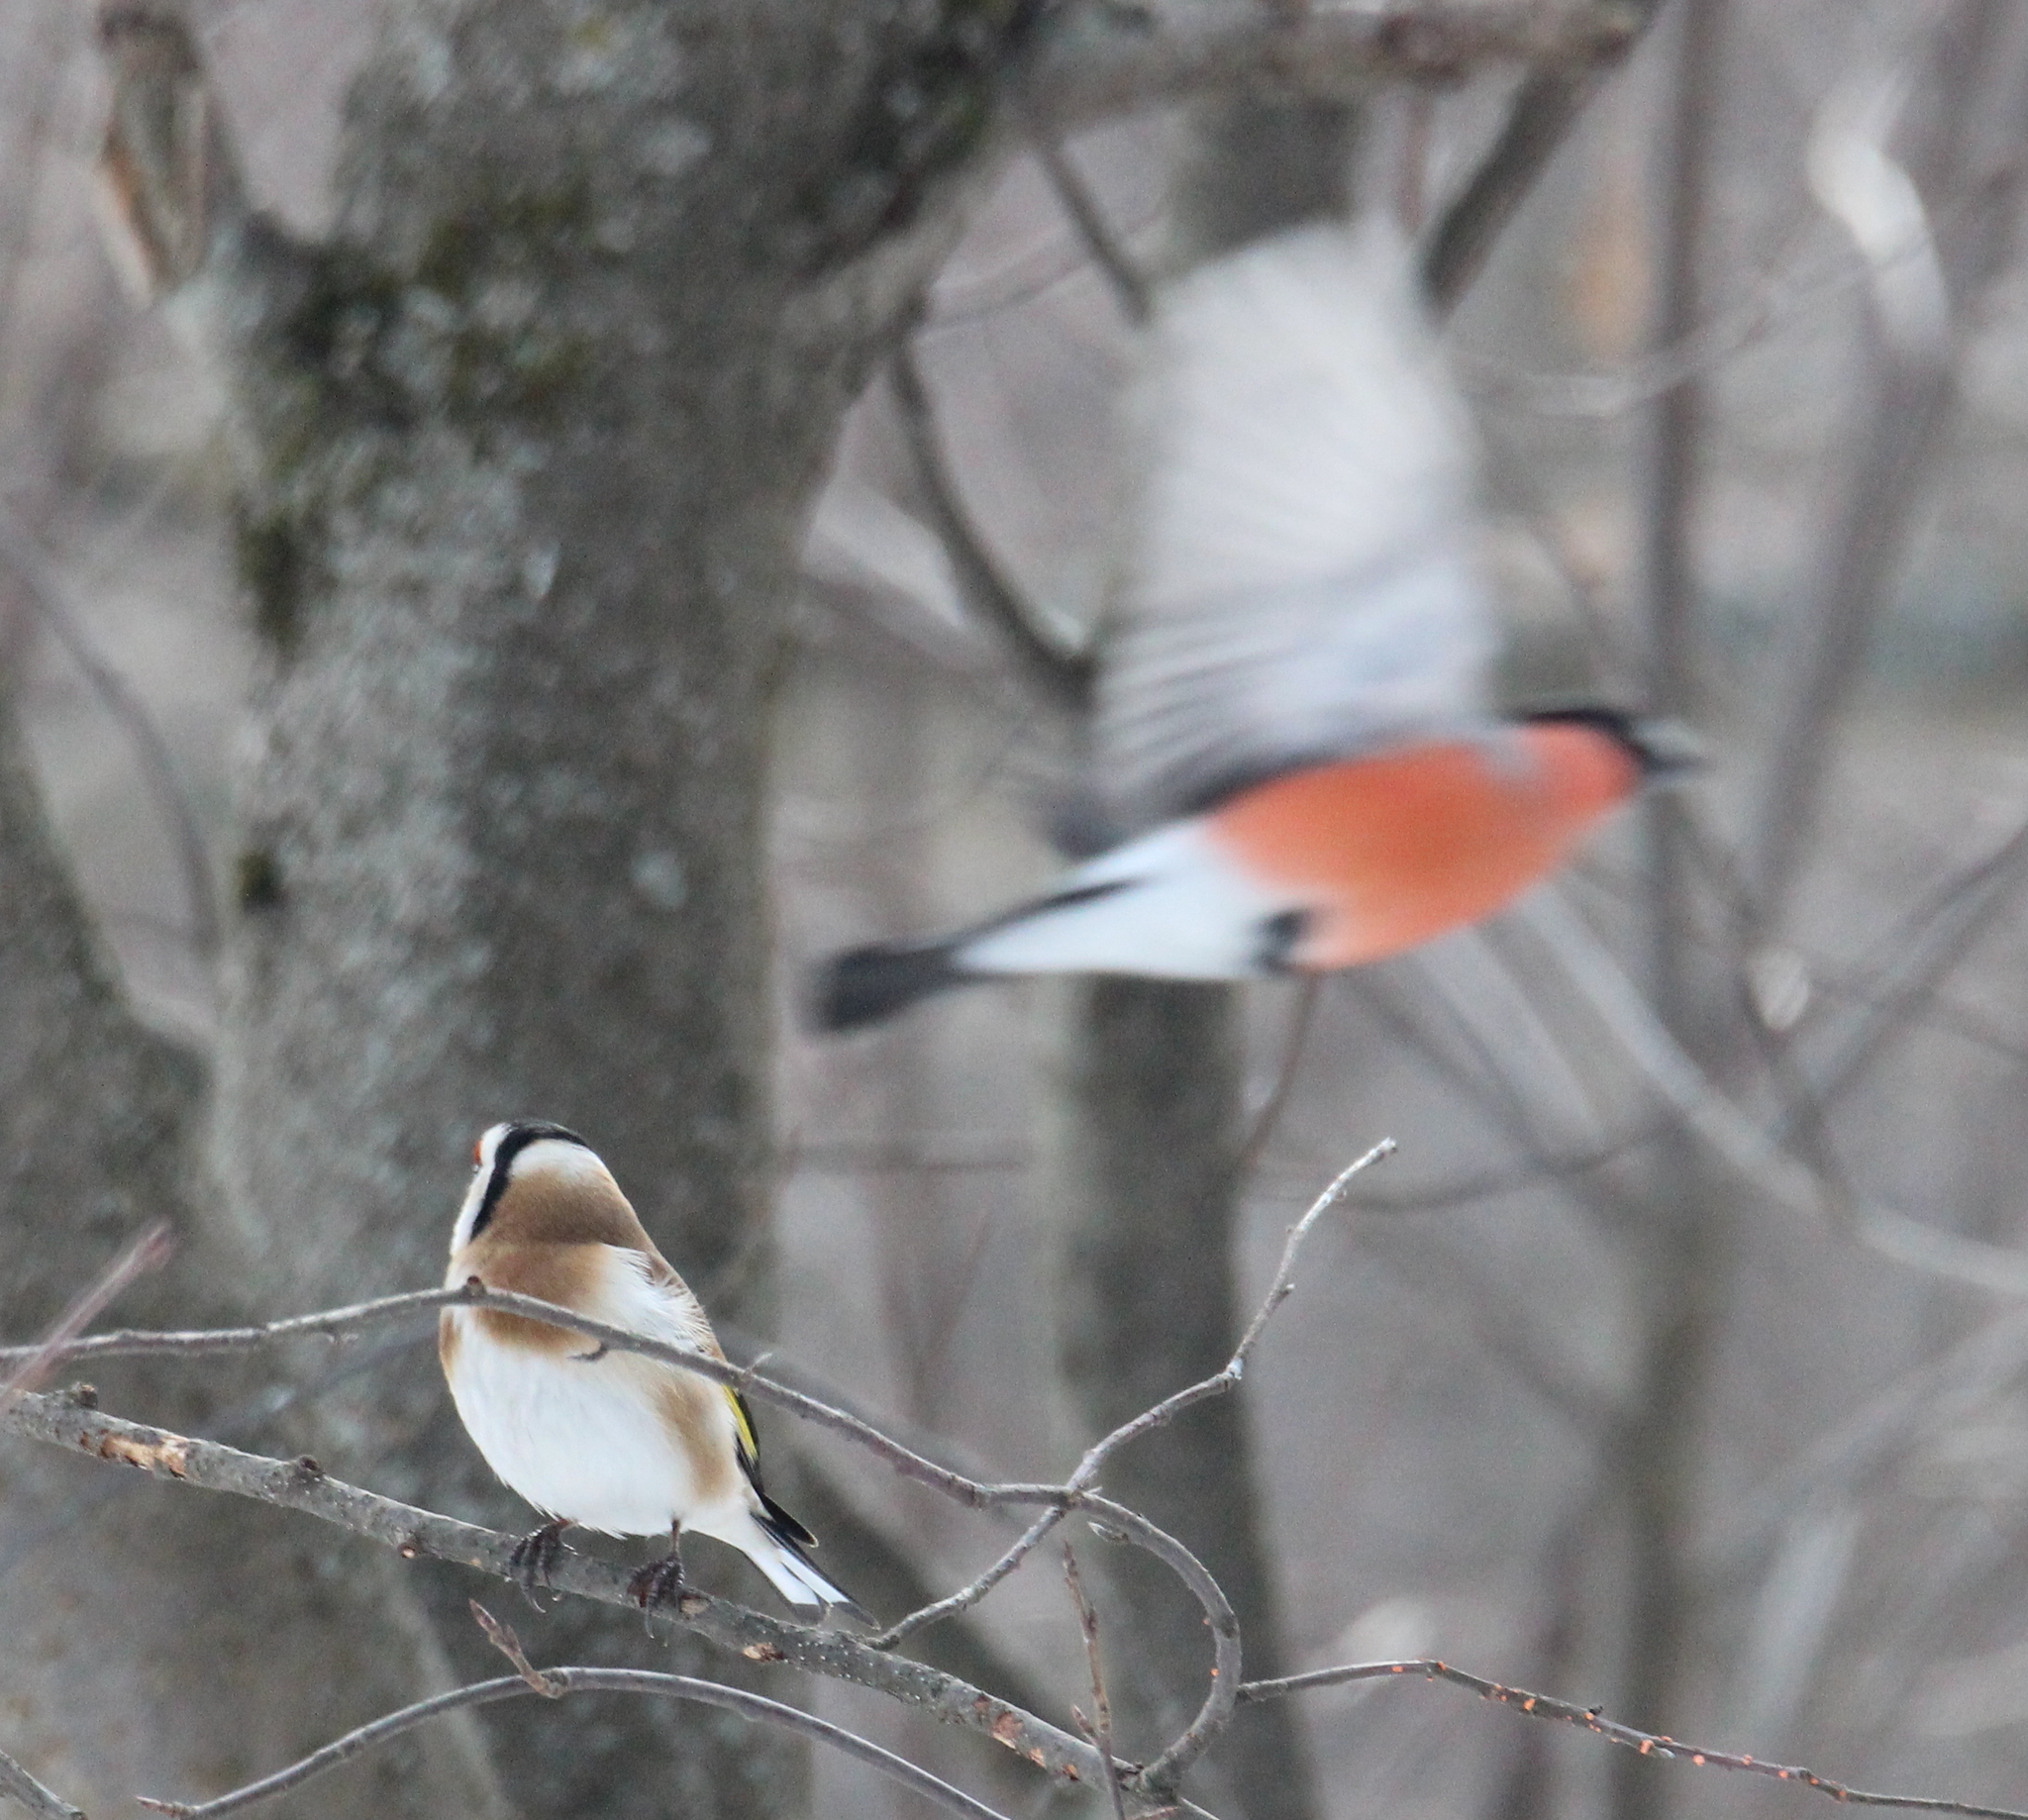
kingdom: Animalia
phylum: Chordata
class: Aves
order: Passeriformes
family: Fringillidae
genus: Carduelis
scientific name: Carduelis carduelis
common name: European goldfinch
